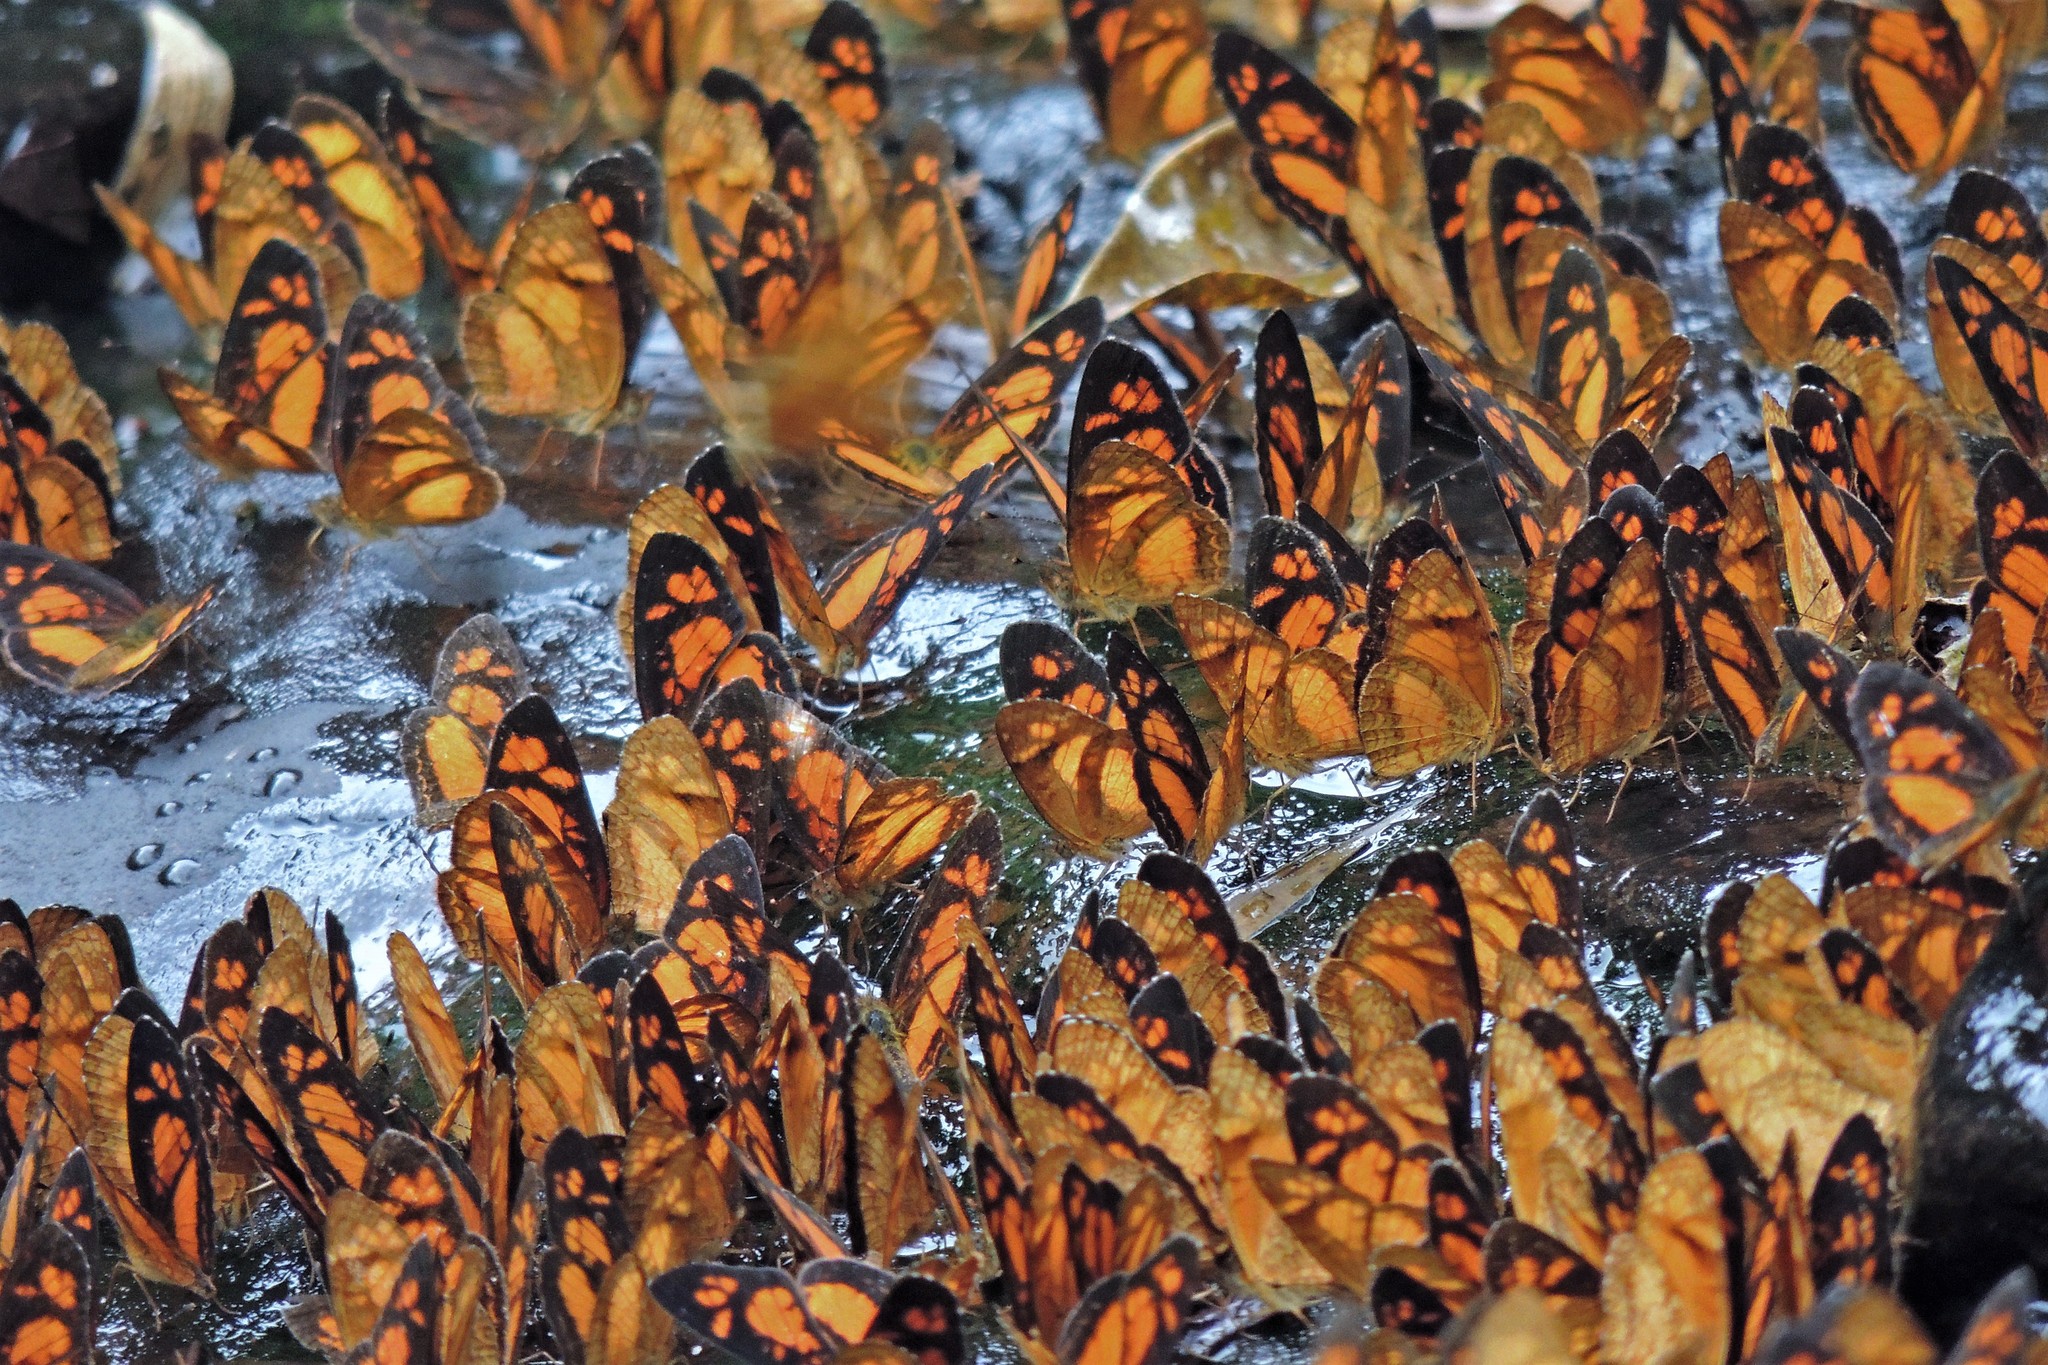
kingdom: Animalia
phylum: Arthropoda
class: Insecta
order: Lepidoptera
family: Nymphalidae
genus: Ortilia
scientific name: Ortilia dicoma
